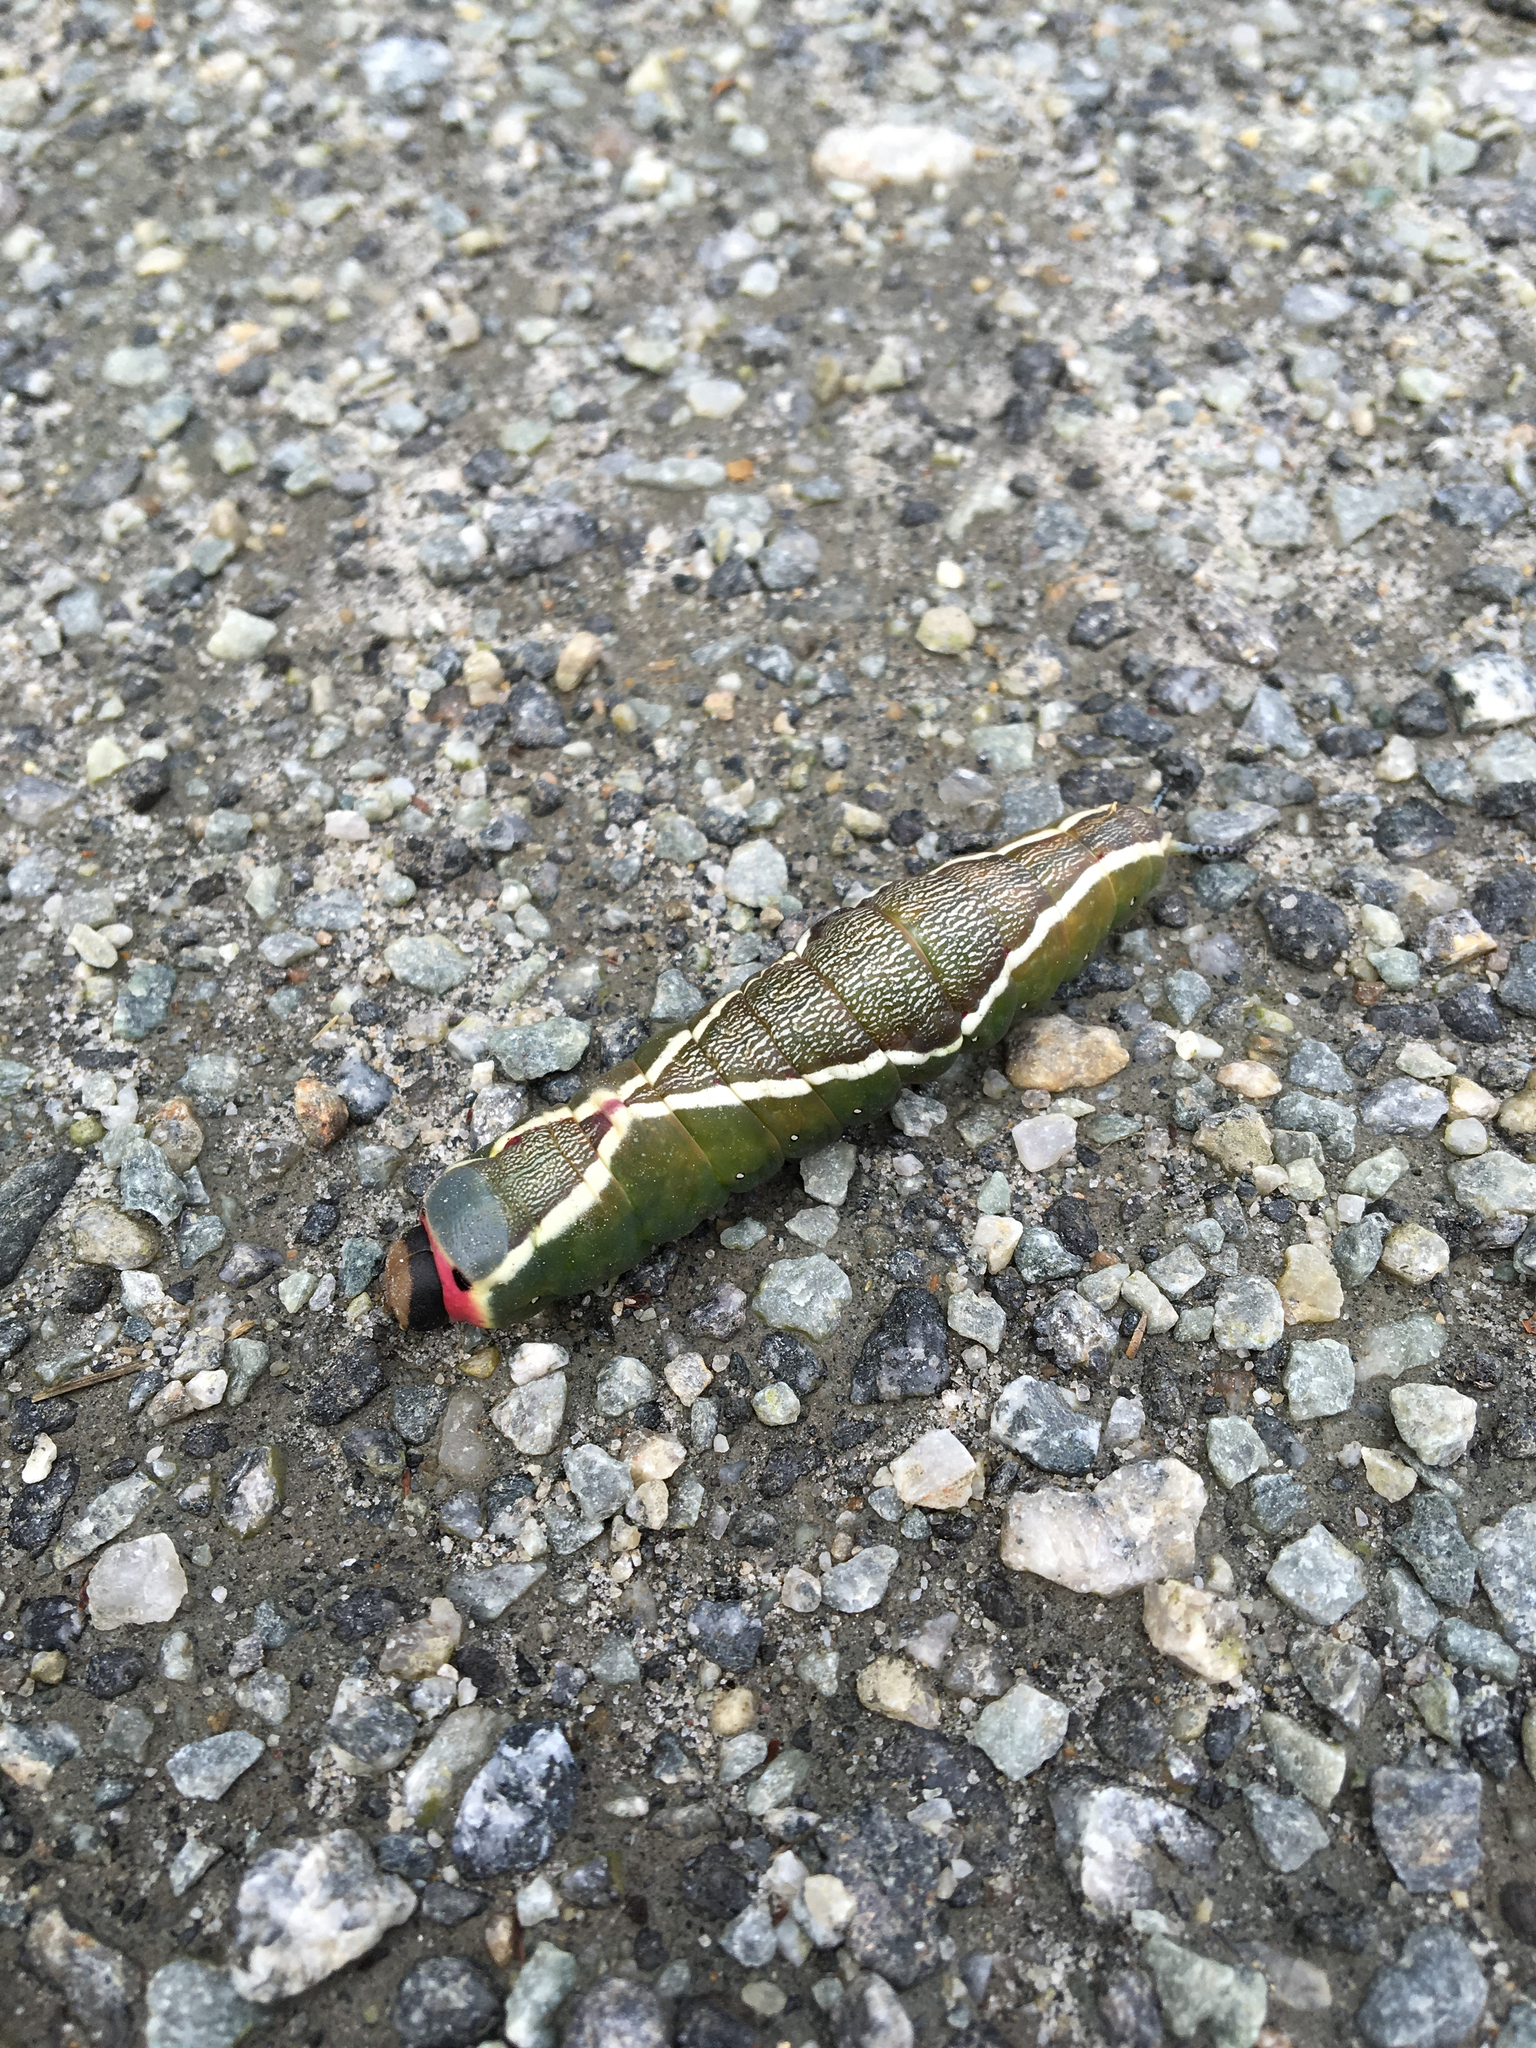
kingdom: Animalia
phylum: Arthropoda
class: Insecta
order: Lepidoptera
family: Notodontidae
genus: Cerura
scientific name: Cerura vinula
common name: Puss moth
